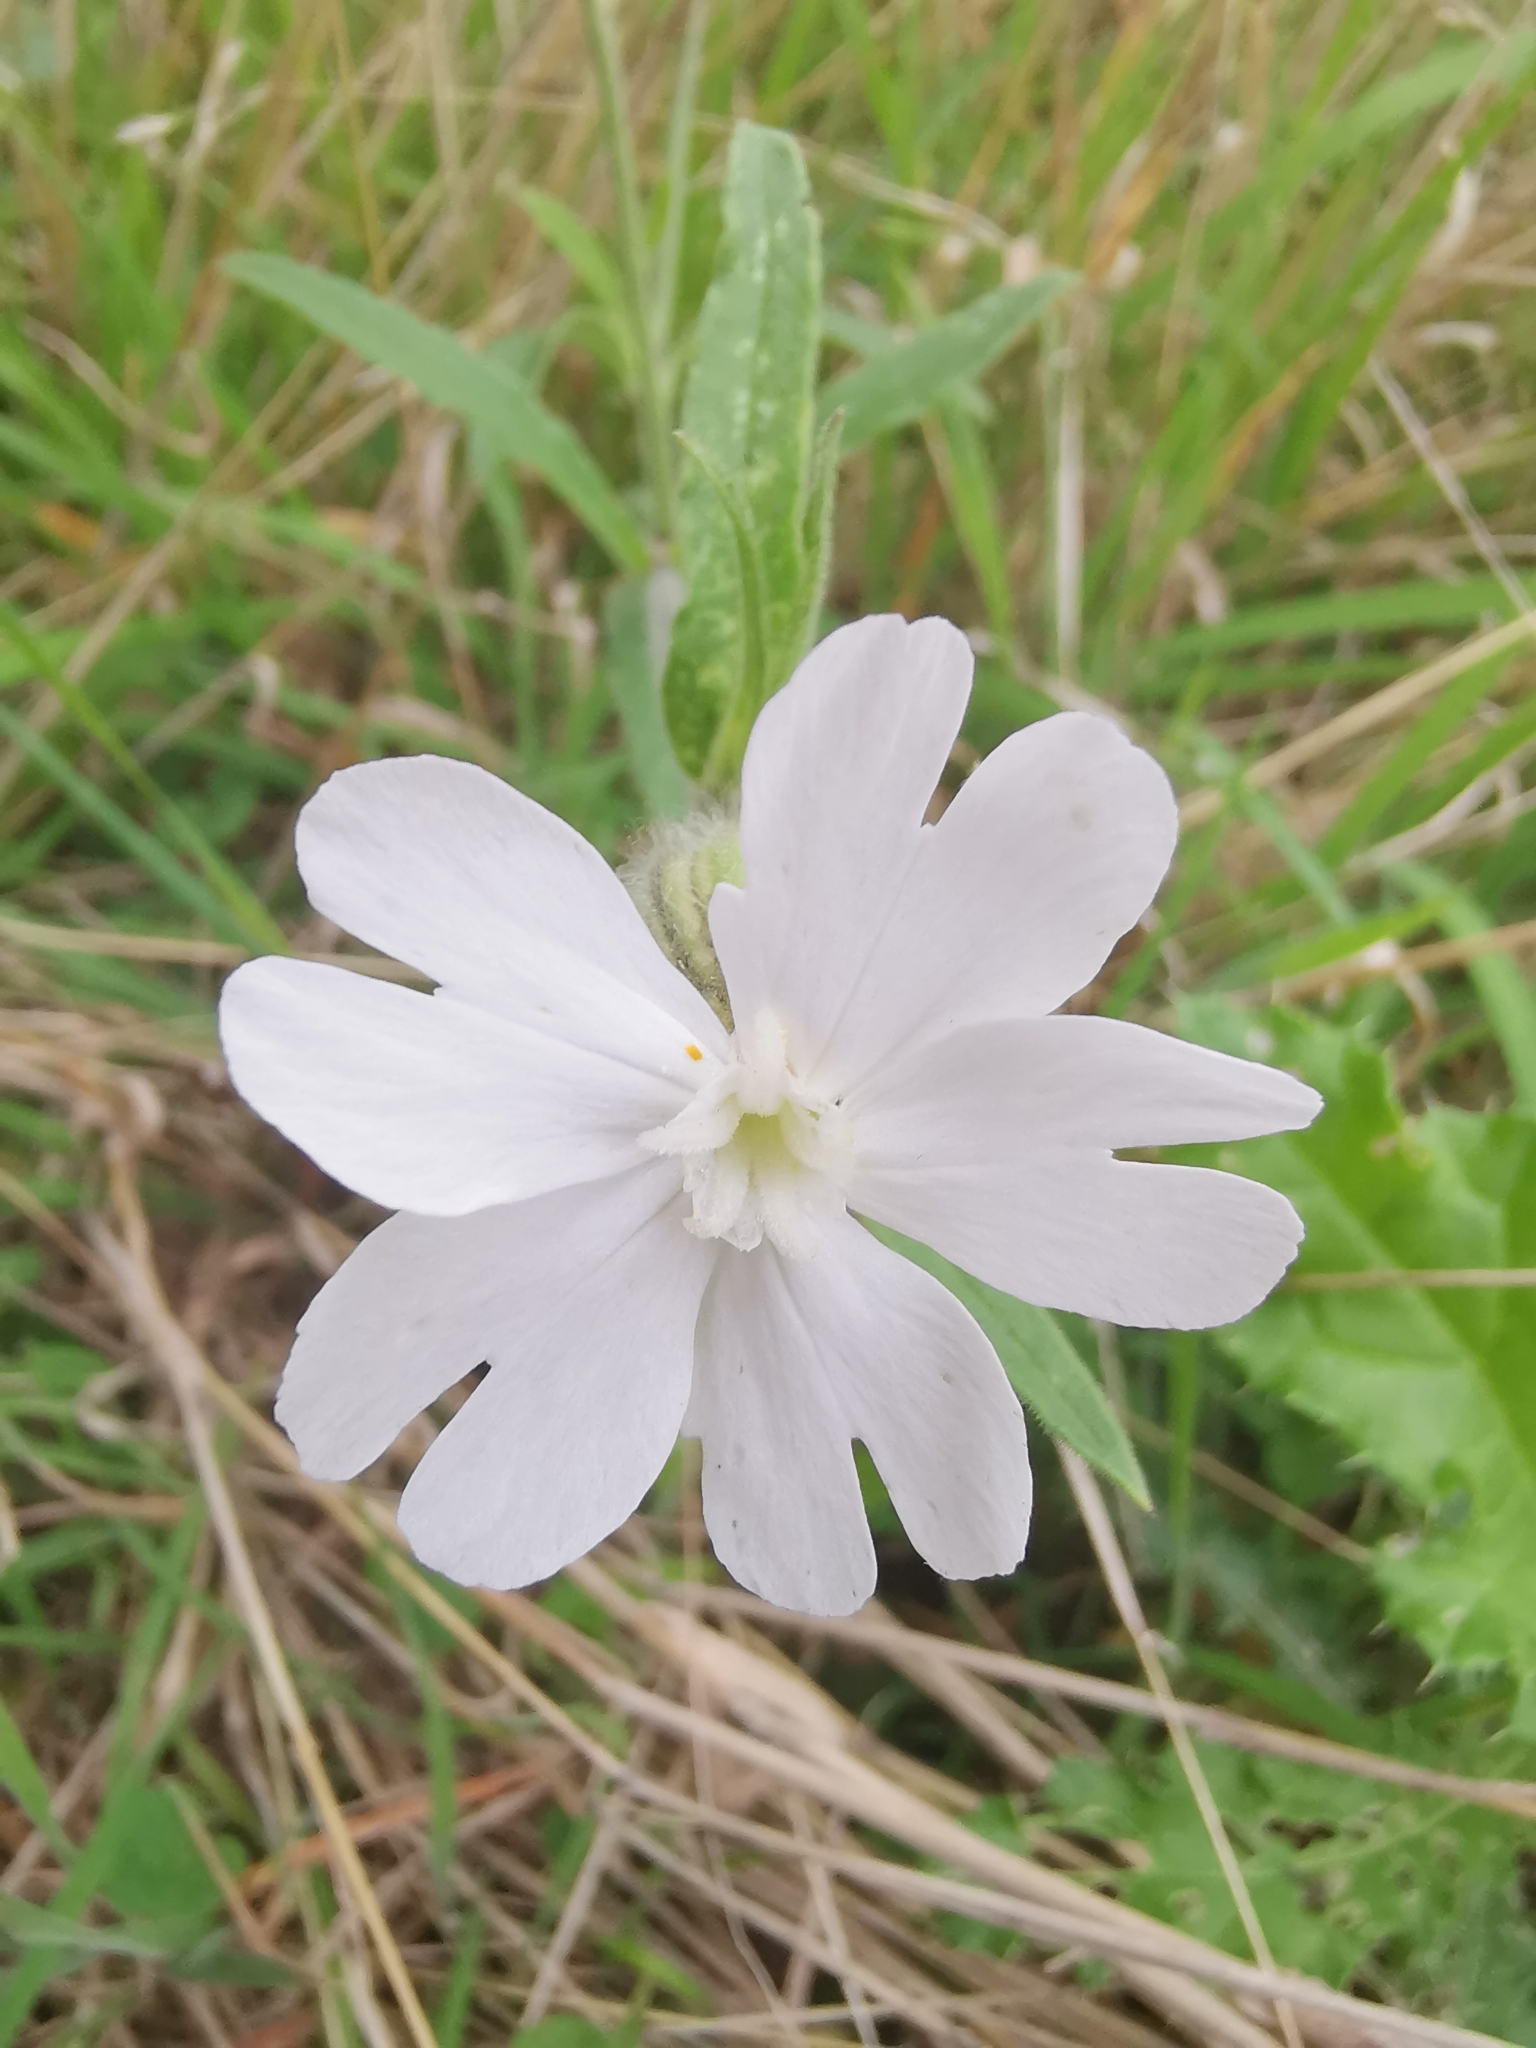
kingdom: Plantae
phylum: Tracheophyta
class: Magnoliopsida
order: Caryophyllales
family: Caryophyllaceae
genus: Silene
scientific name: Silene latifolia
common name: White campion
